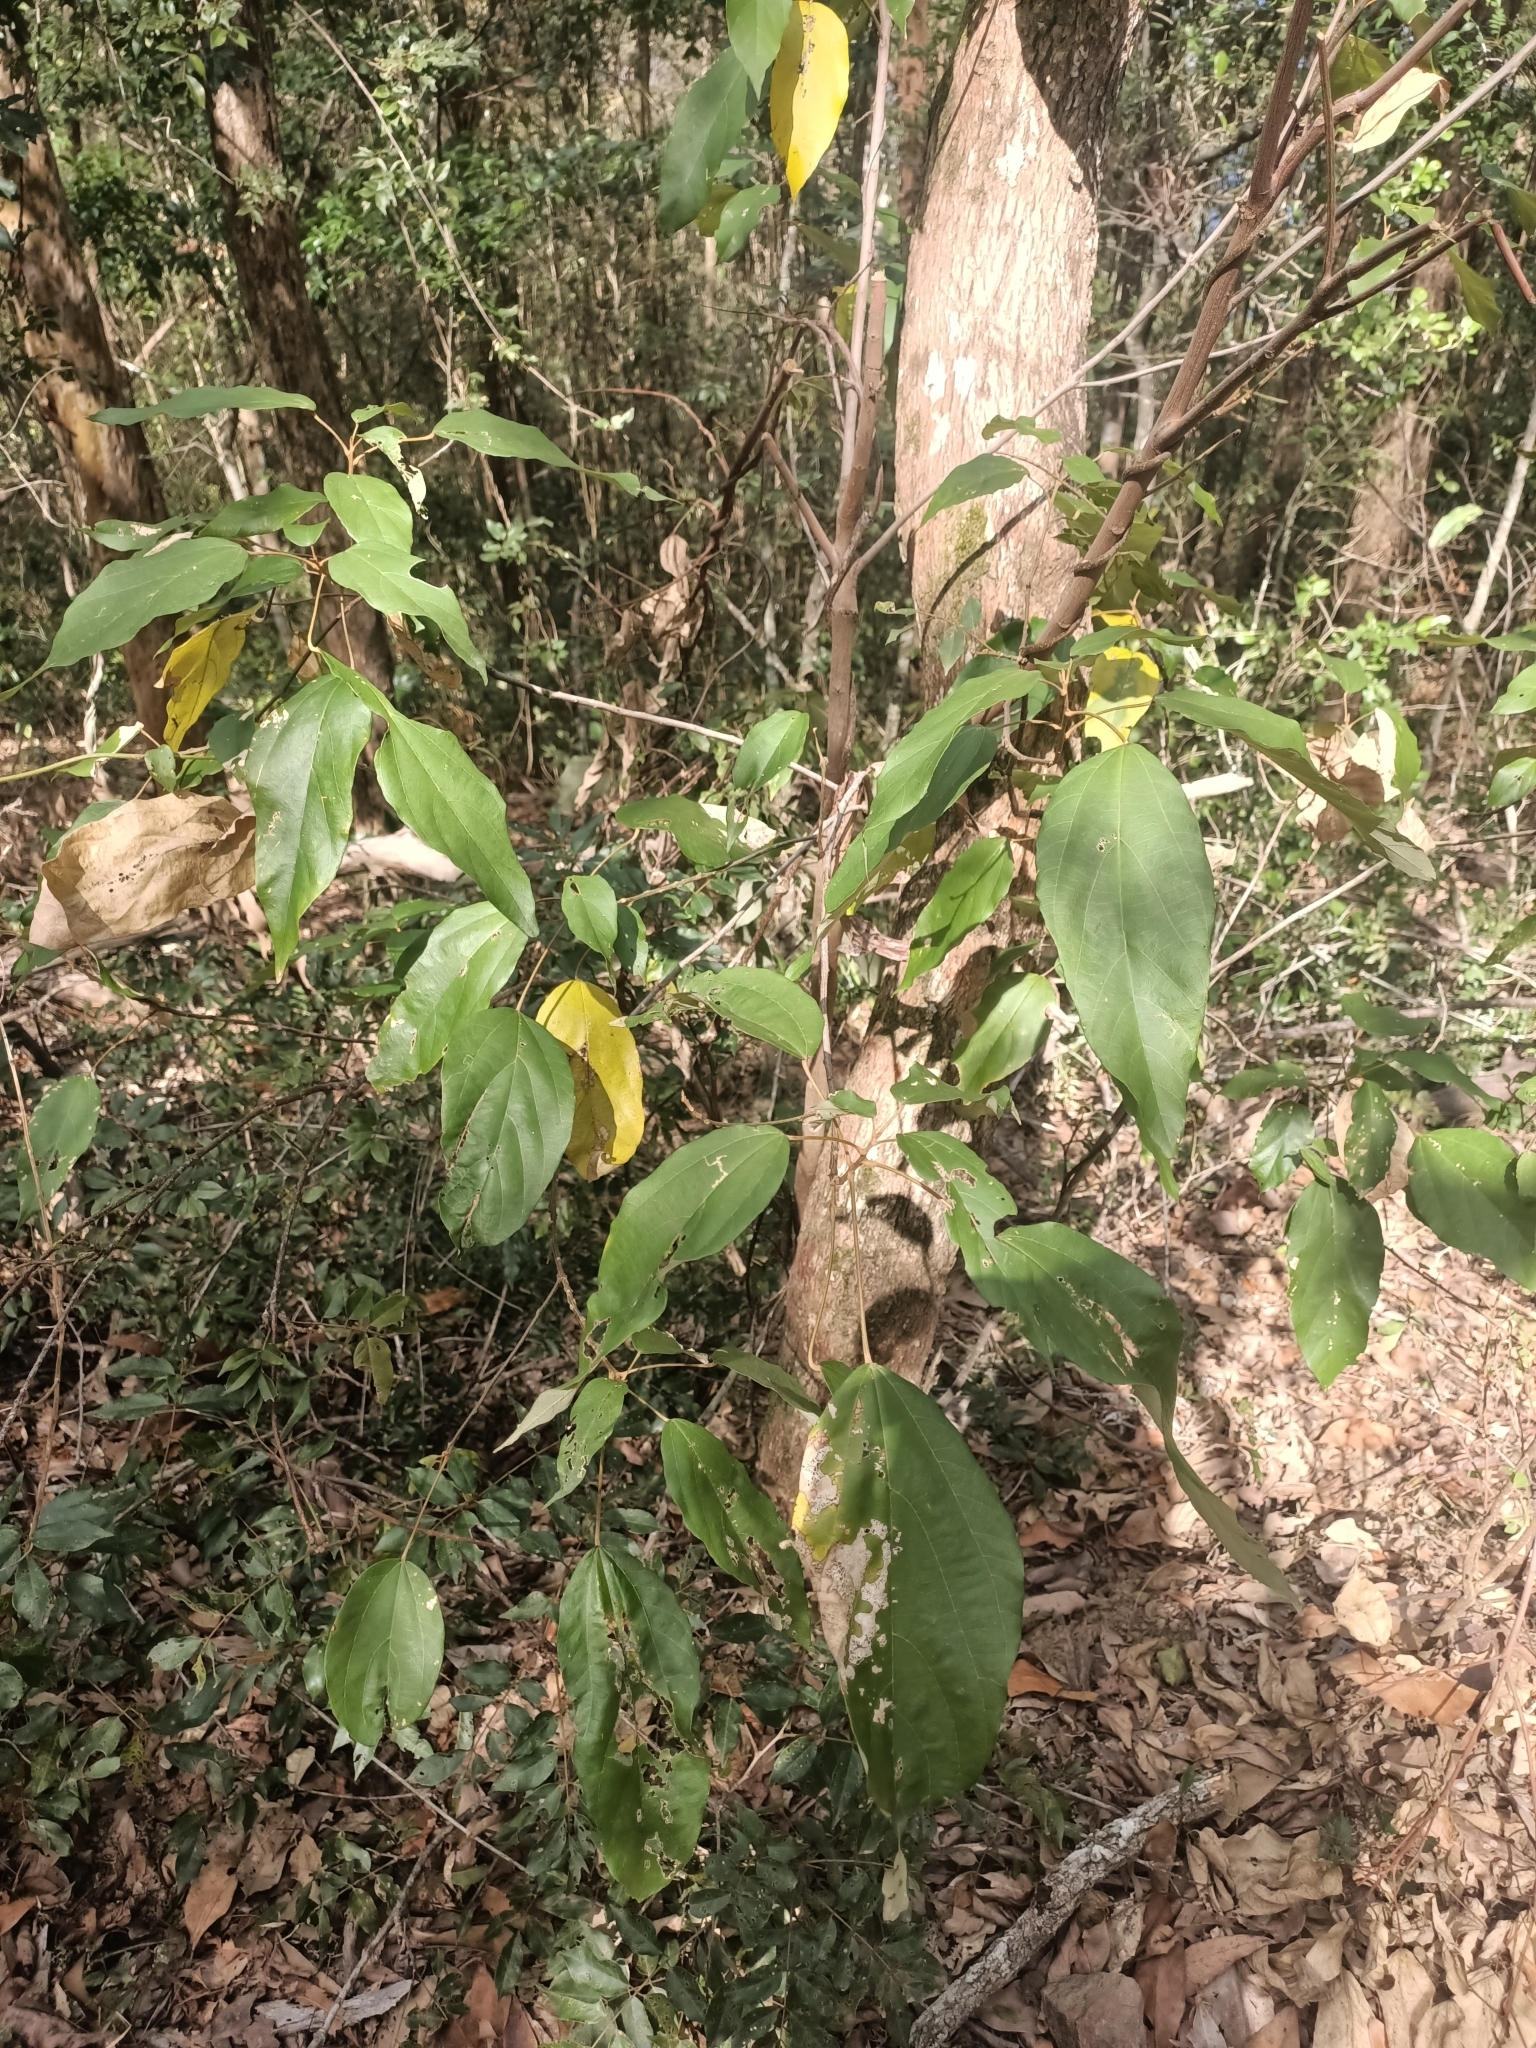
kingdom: Plantae
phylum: Tracheophyta
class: Magnoliopsida
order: Malpighiales
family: Euphorbiaceae
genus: Mallotus
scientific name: Mallotus philippensis
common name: Kamala tree
